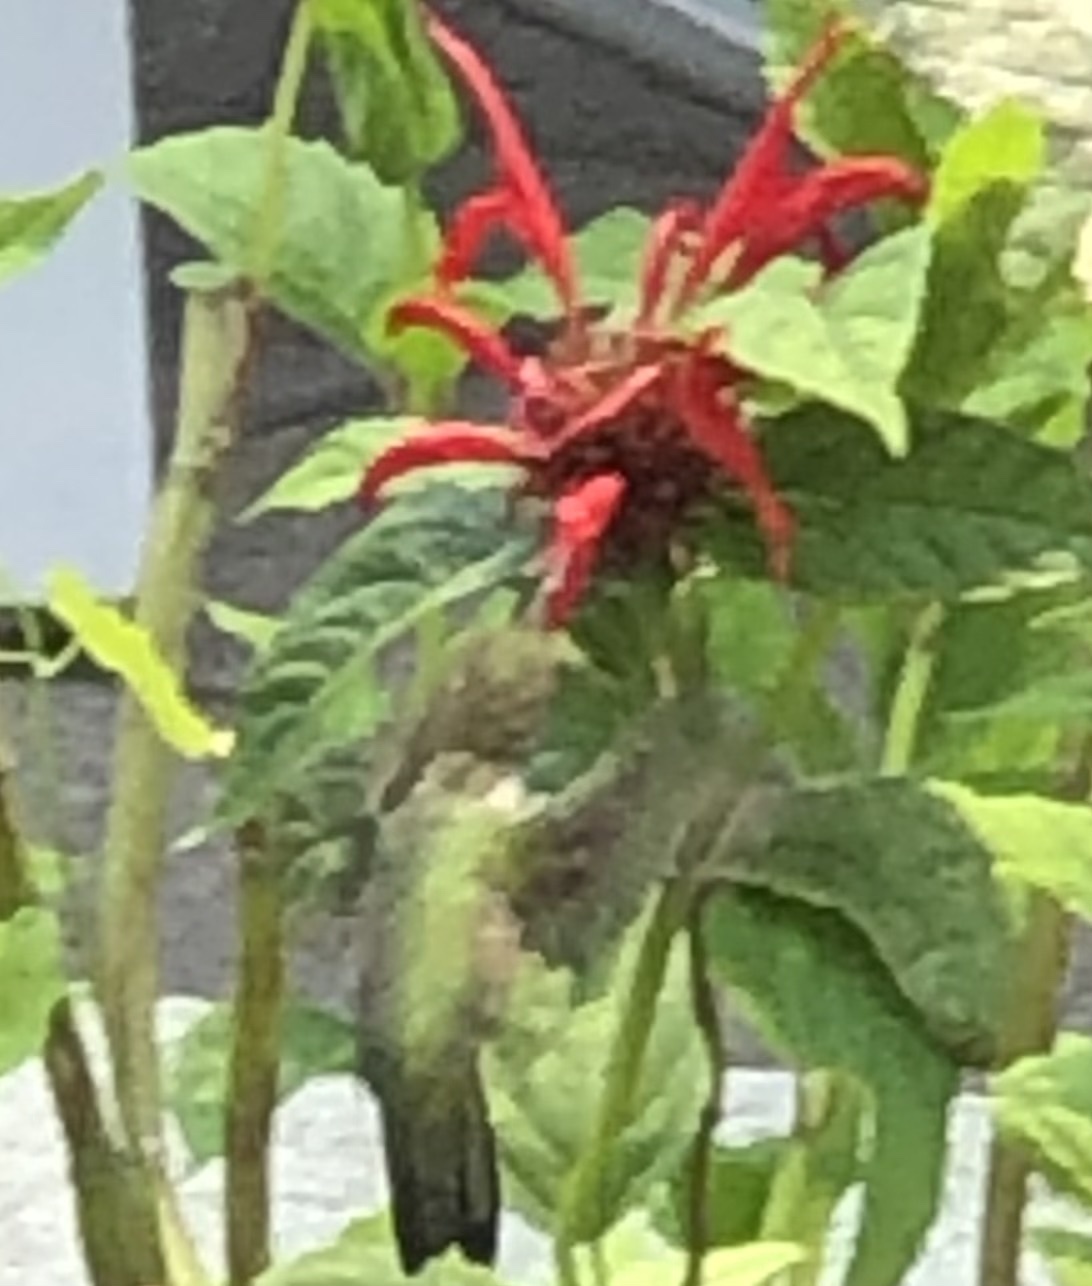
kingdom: Animalia
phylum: Chordata
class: Aves
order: Apodiformes
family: Trochilidae
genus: Archilochus
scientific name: Archilochus colubris
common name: Ruby-throated hummingbird
